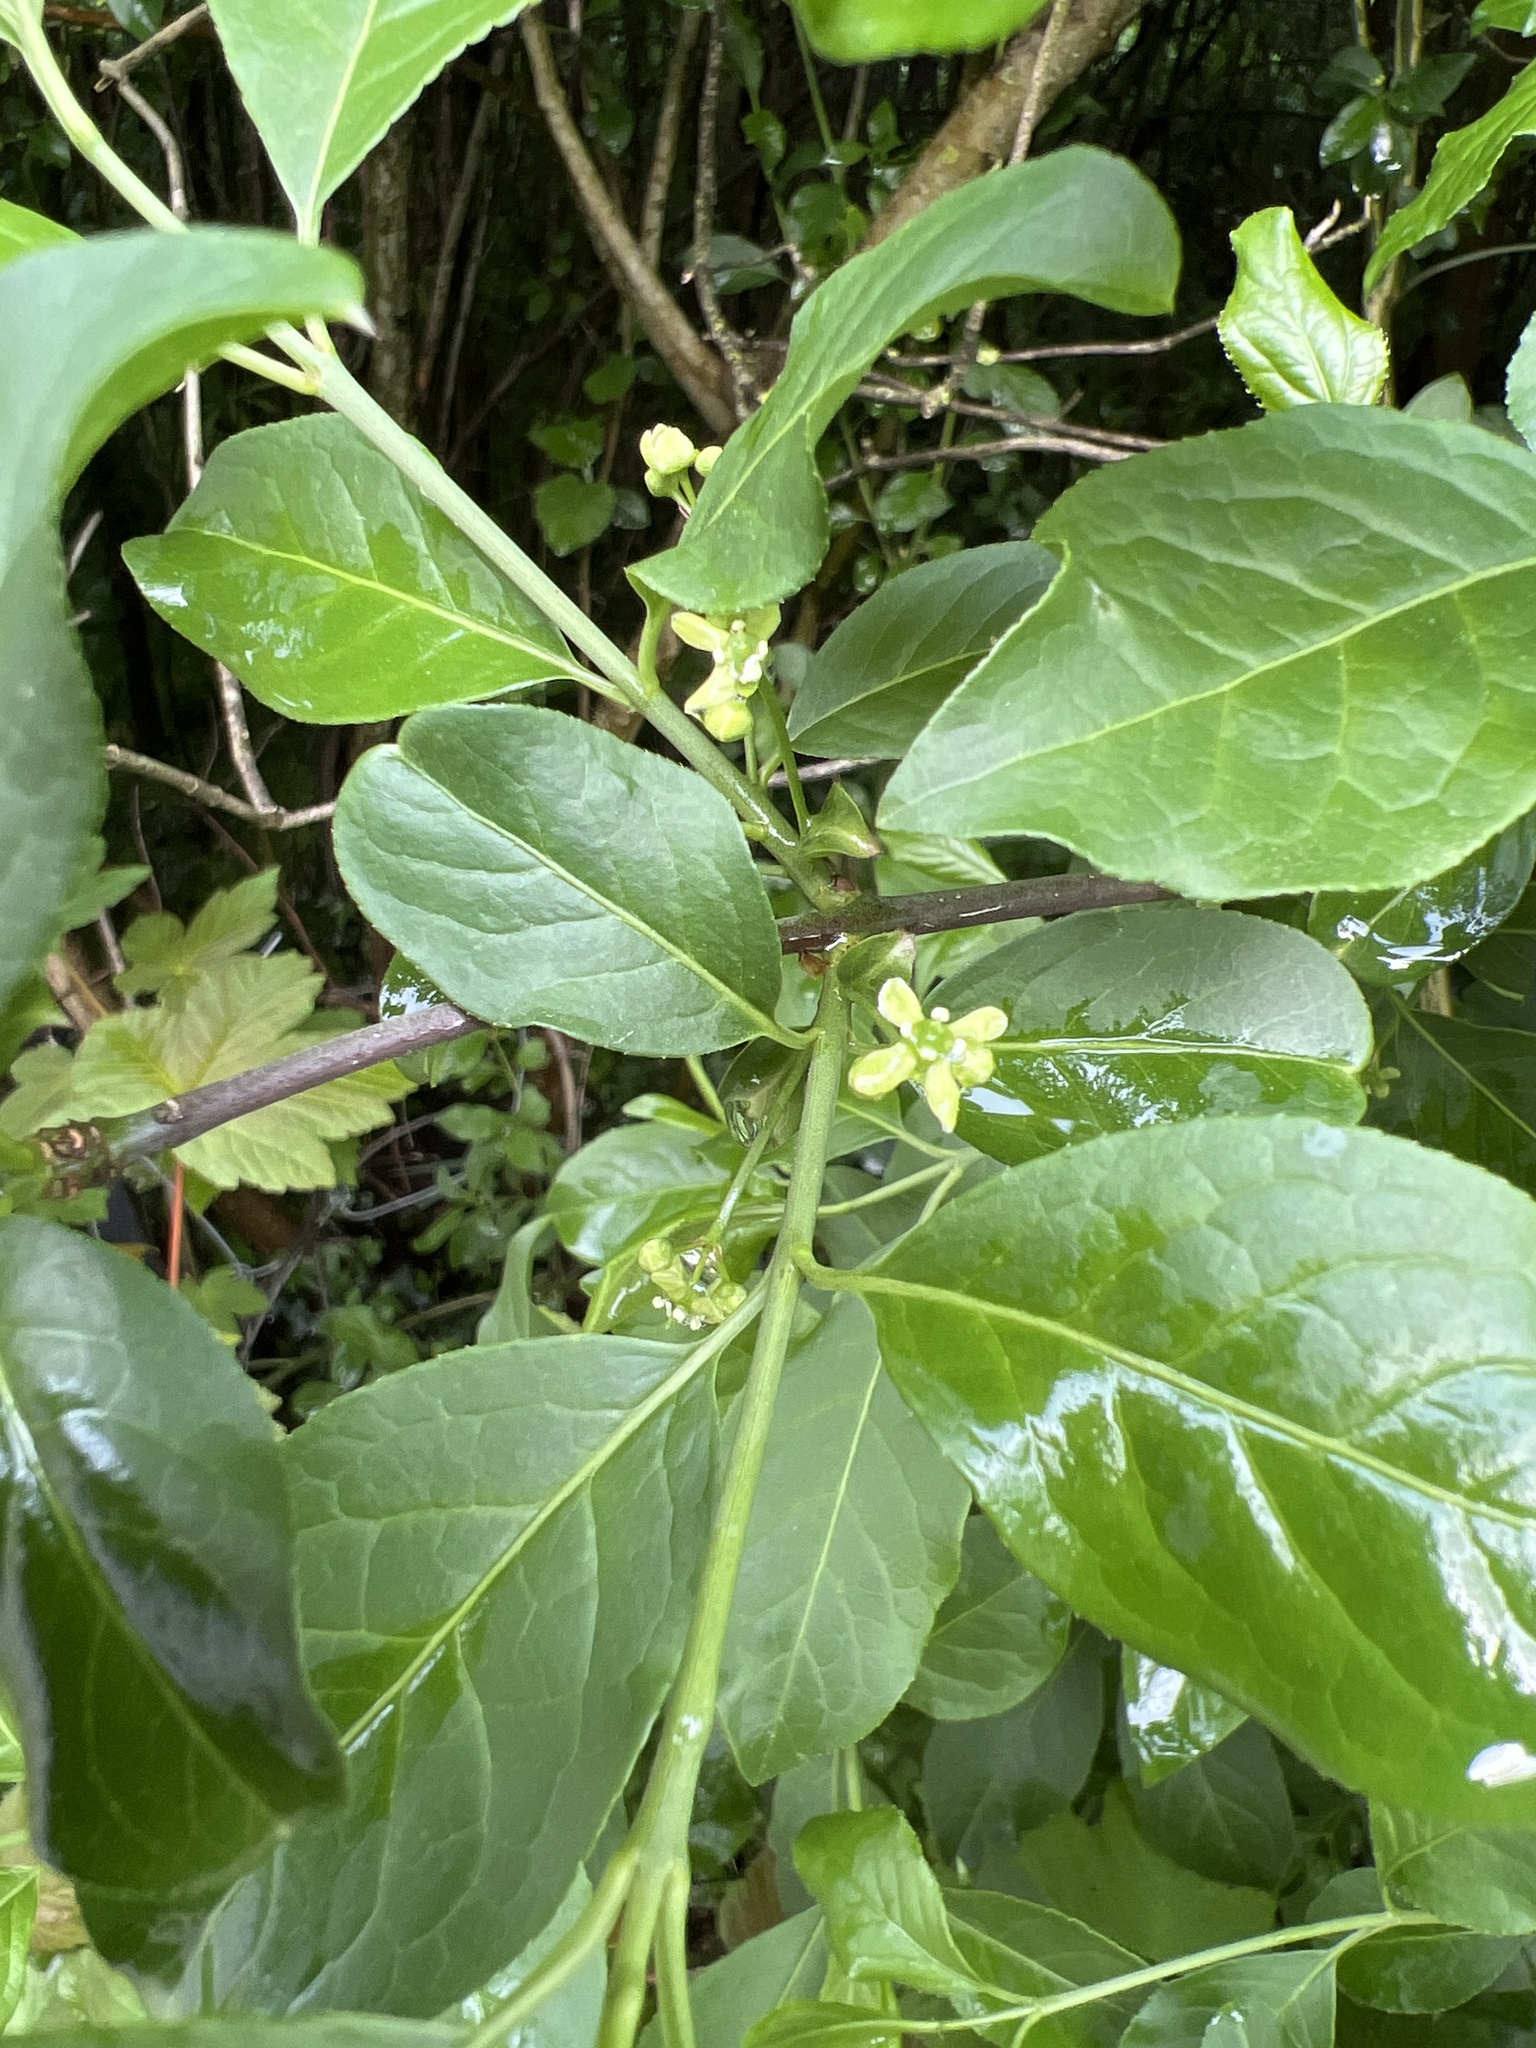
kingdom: Plantae
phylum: Tracheophyta
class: Magnoliopsida
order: Celastrales
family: Celastraceae
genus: Euonymus
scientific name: Euonymus europaeus
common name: Spindle
